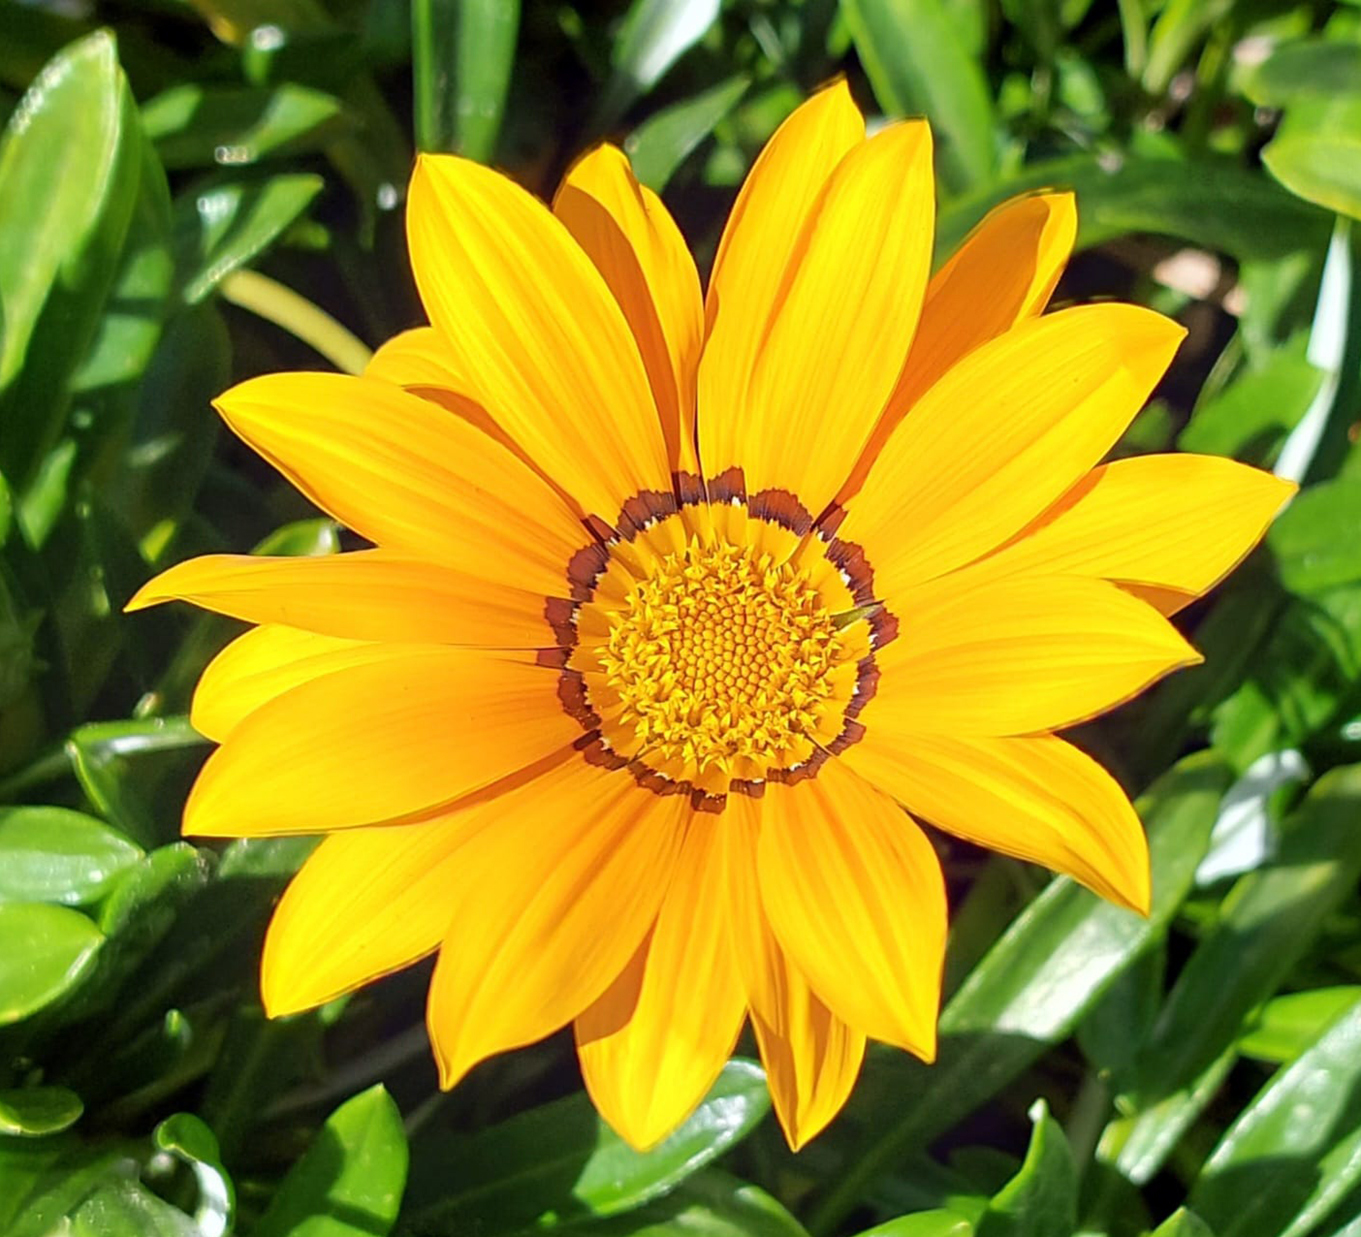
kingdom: Plantae
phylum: Tracheophyta
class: Magnoliopsida
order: Asterales
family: Asteraceae
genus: Gazania
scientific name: Gazania rigens
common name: Treasureflower
